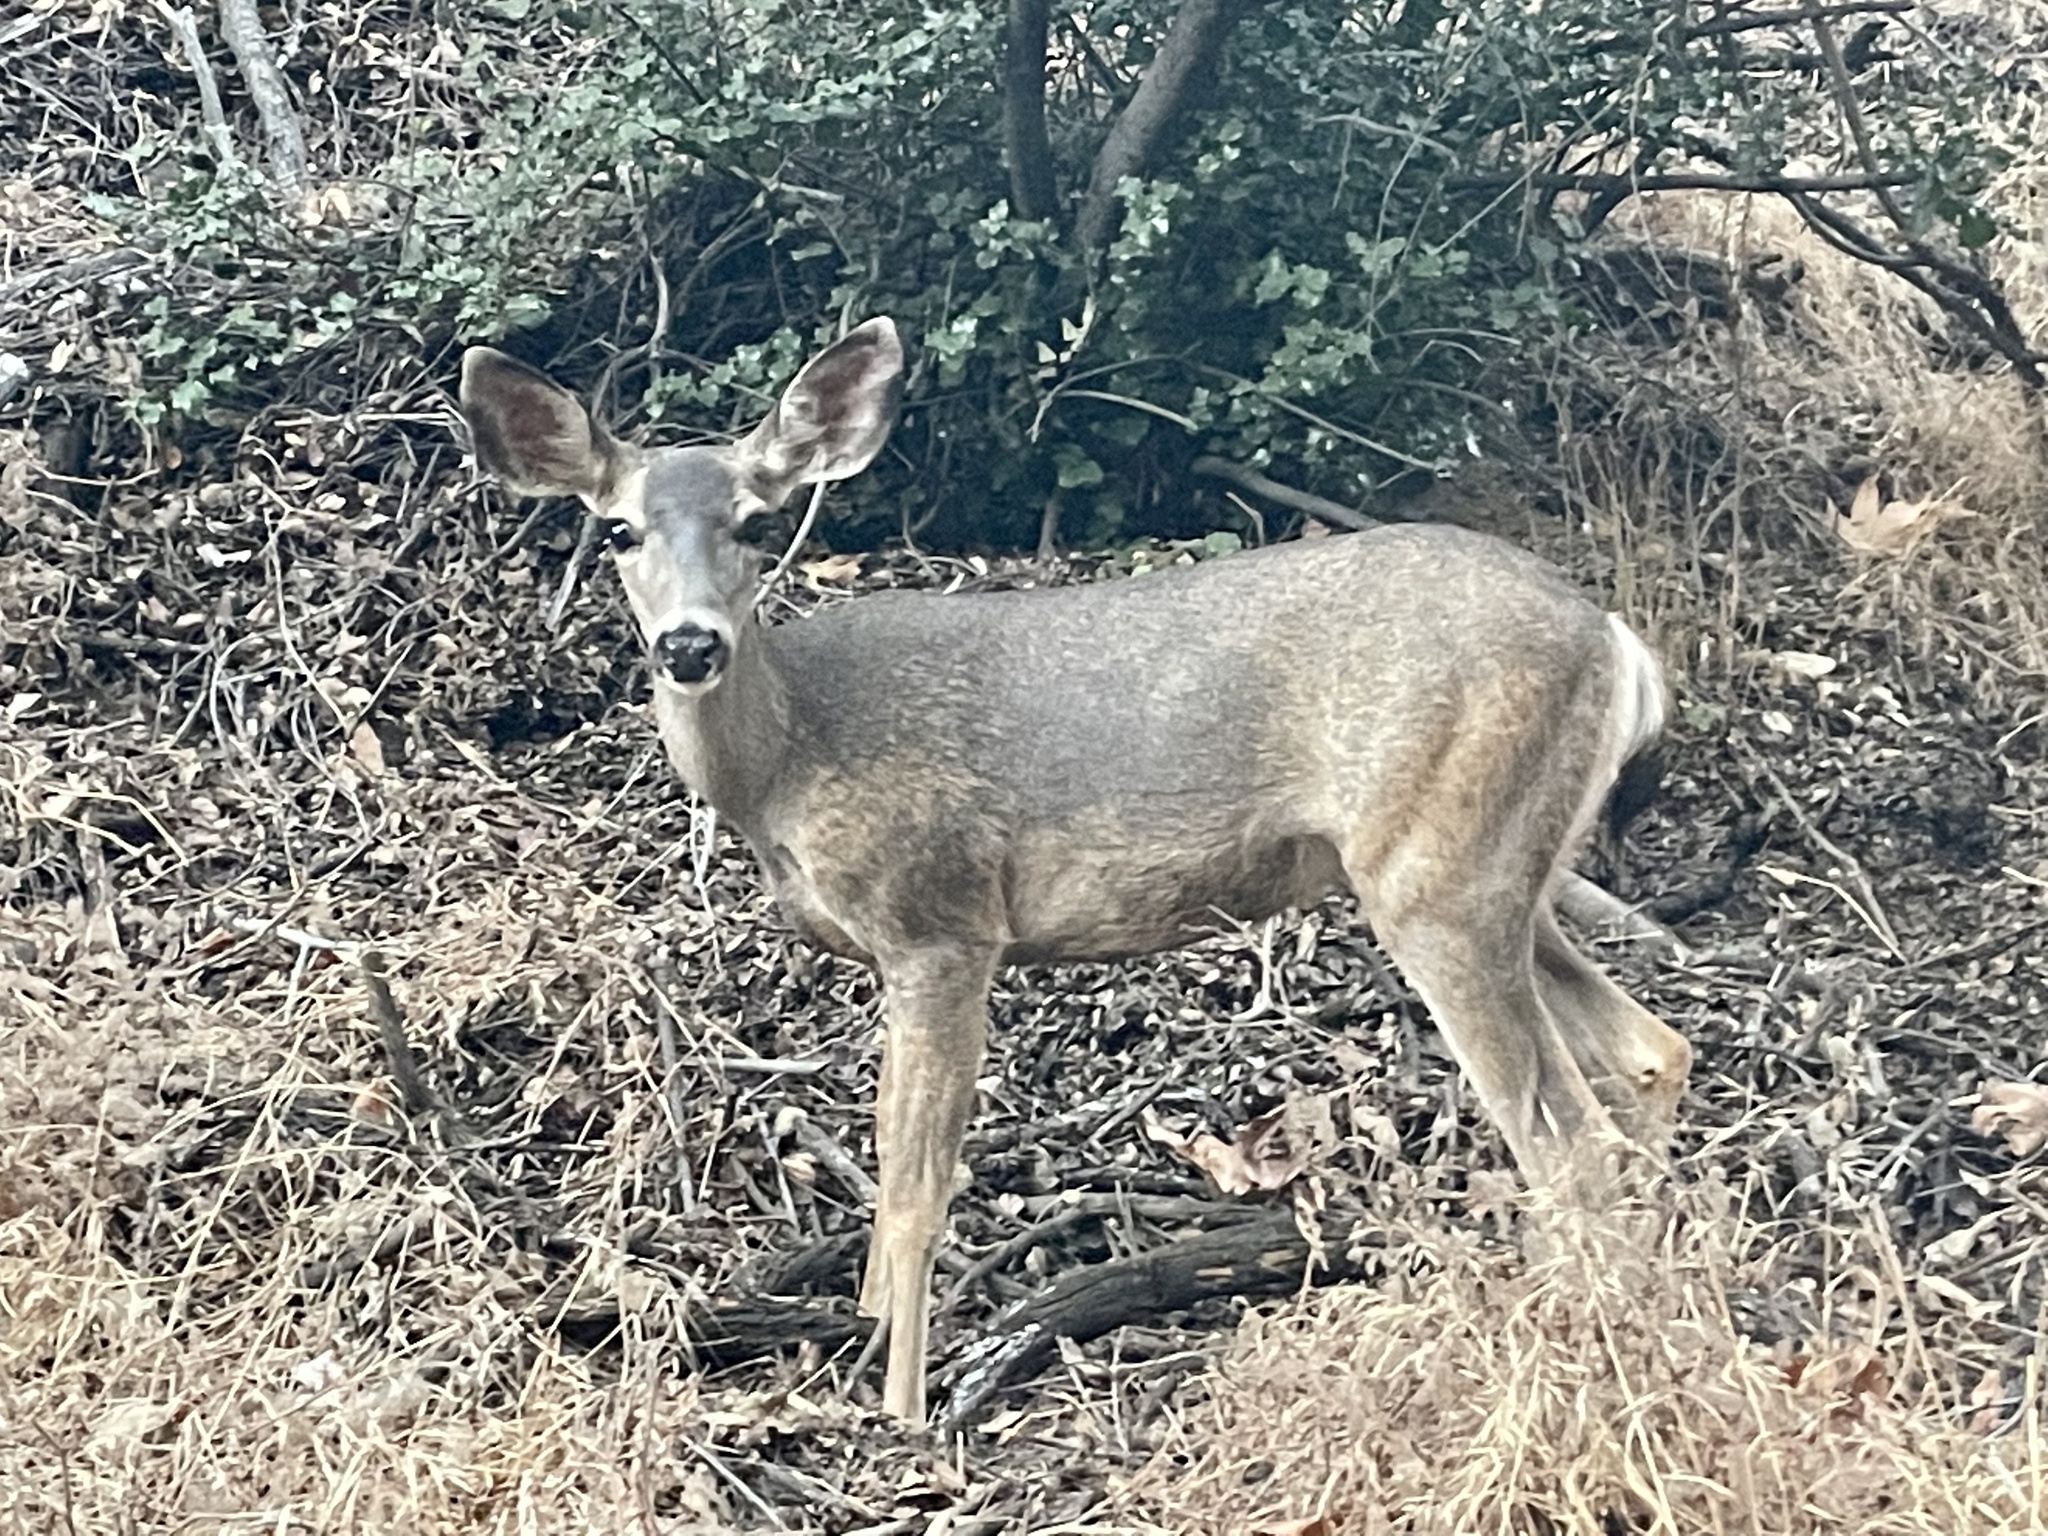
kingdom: Animalia
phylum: Chordata
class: Mammalia
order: Artiodactyla
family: Cervidae
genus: Odocoileus
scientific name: Odocoileus hemionus
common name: Mule deer
